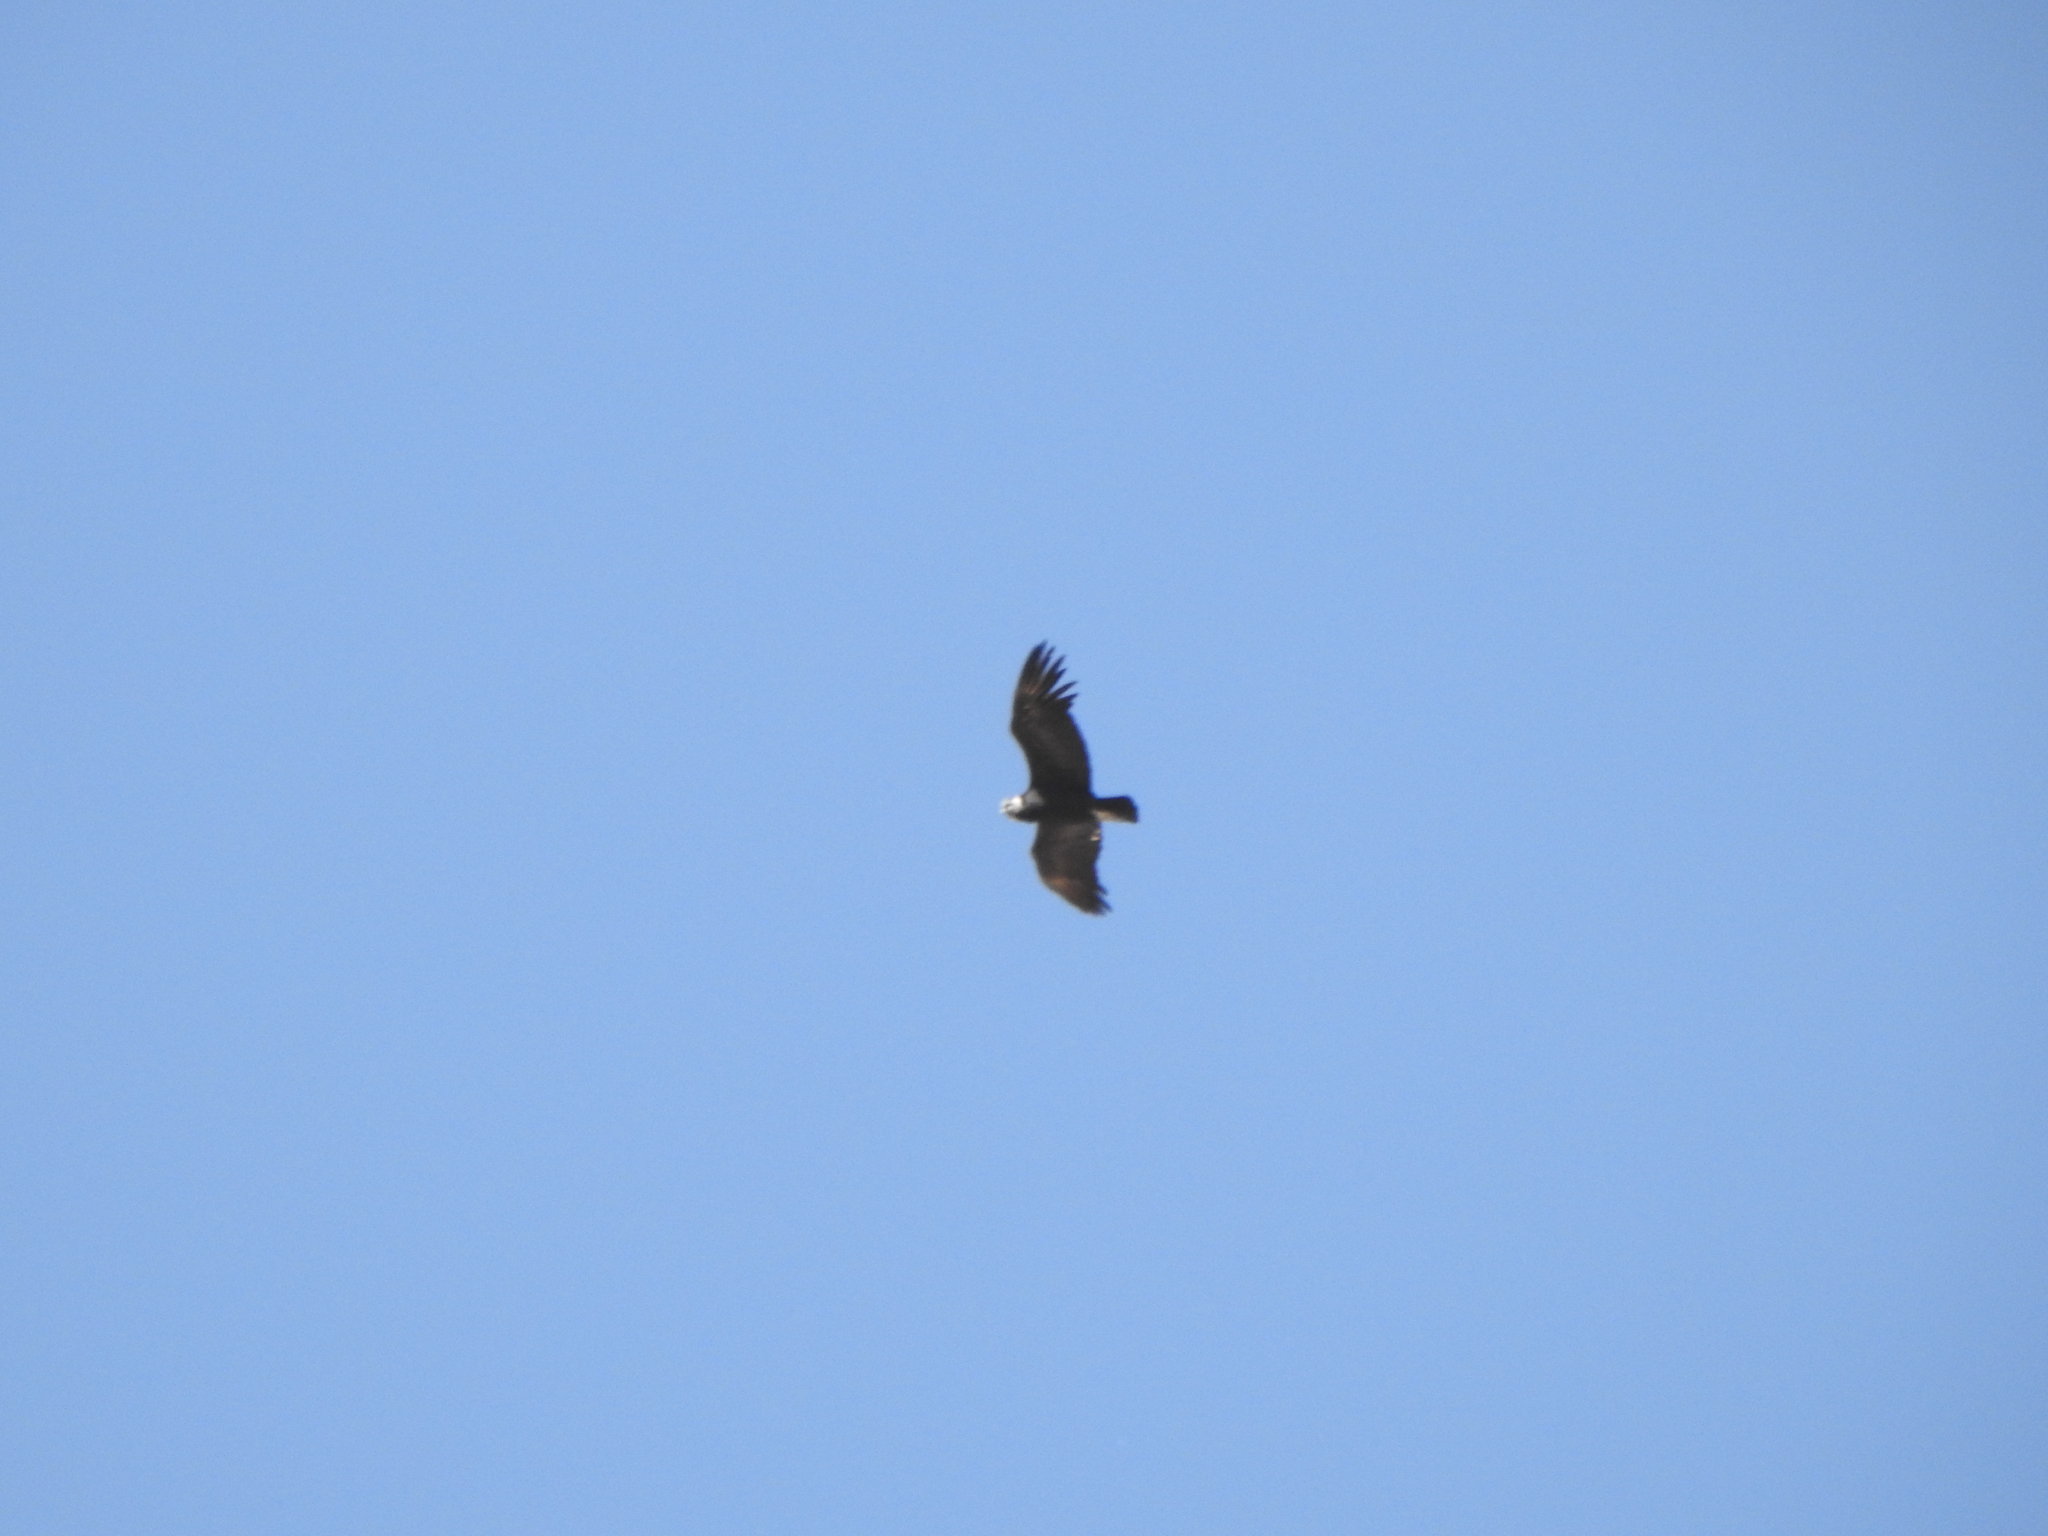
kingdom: Animalia
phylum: Chordata
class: Aves
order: Accipitriformes
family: Cathartidae
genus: Vultur
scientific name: Vultur gryphus
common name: Andean condor
